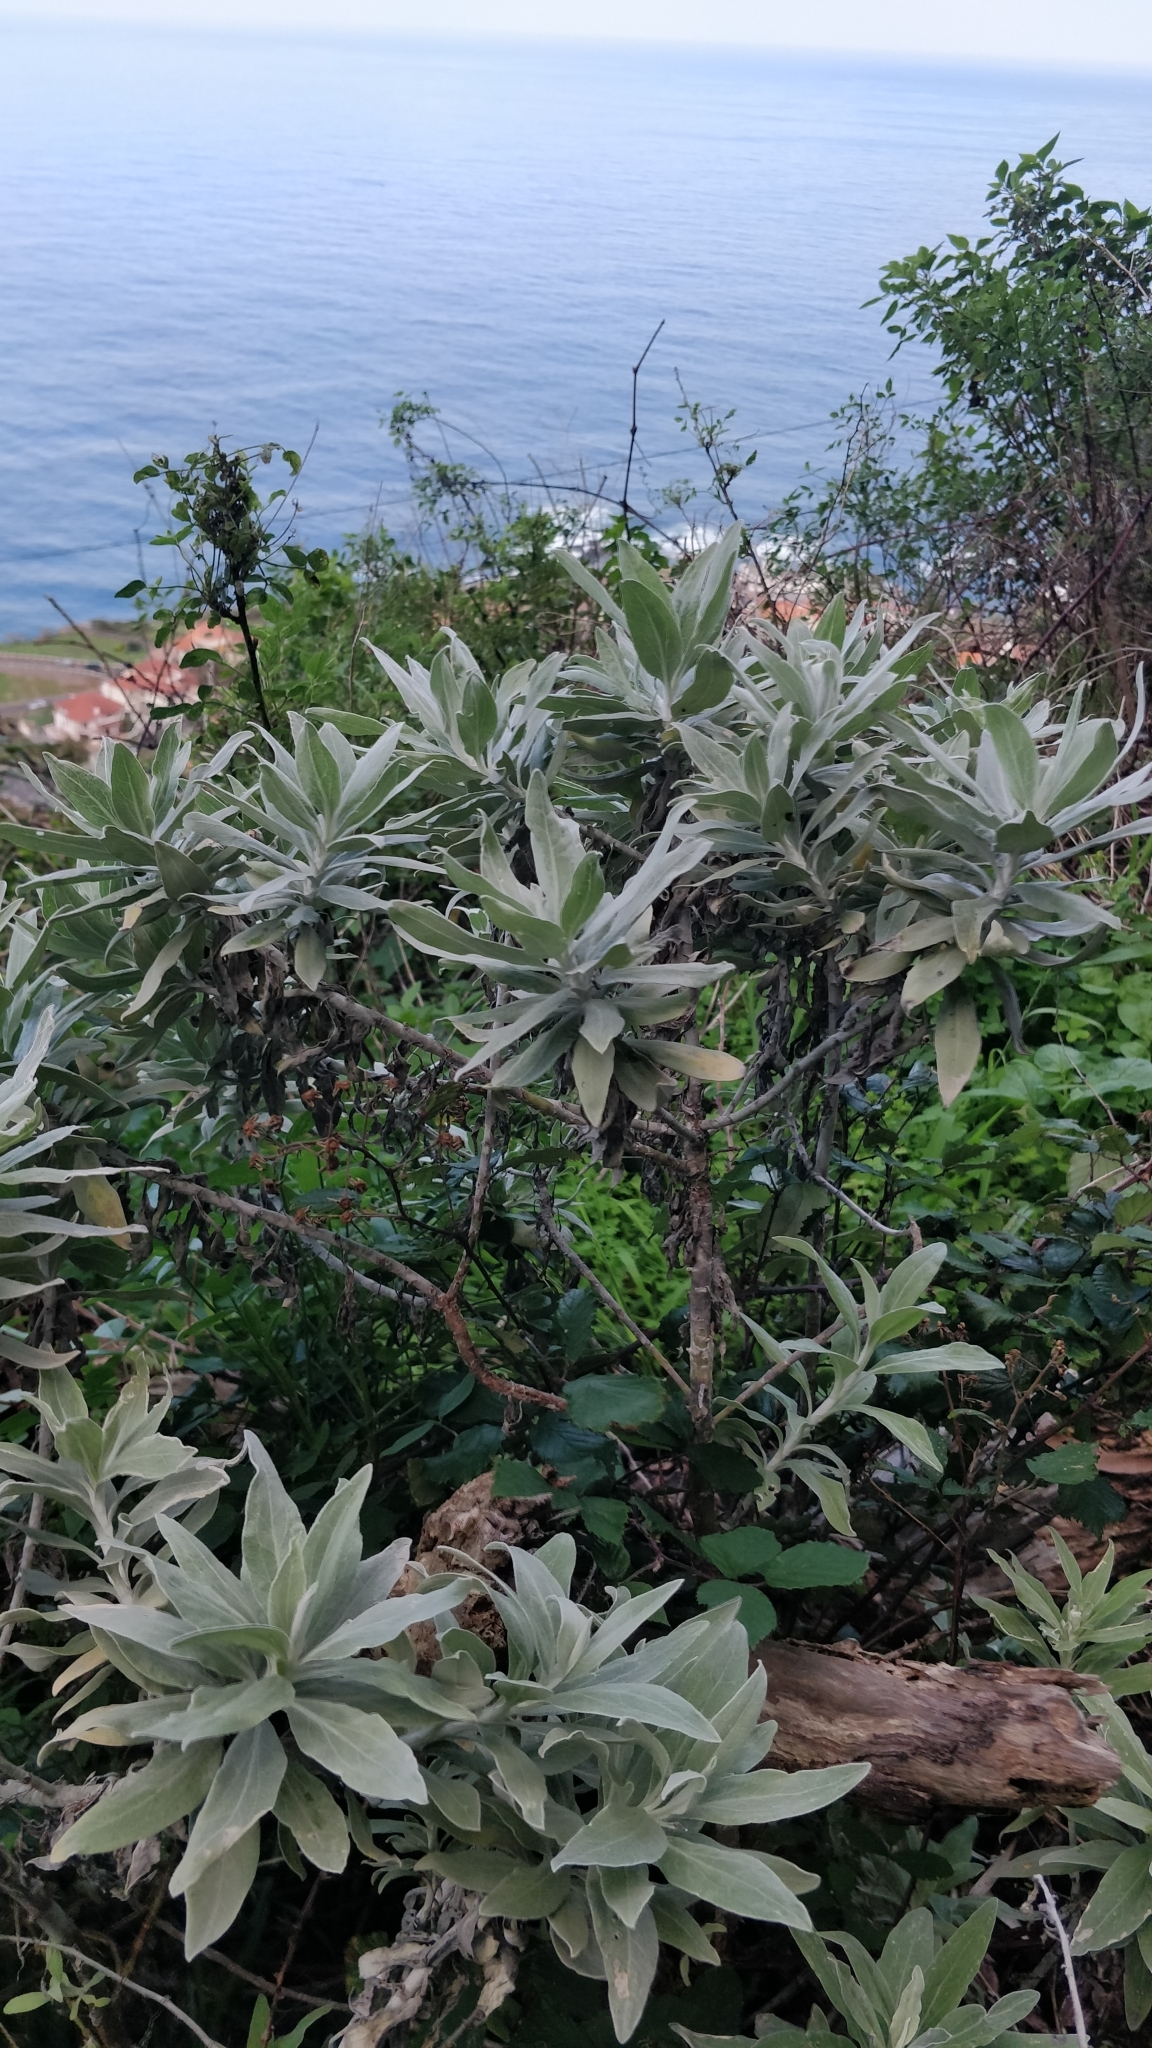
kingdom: Plantae
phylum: Tracheophyta
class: Magnoliopsida
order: Asterales
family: Asteraceae
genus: Helichrysum
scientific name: Helichrysum melaleucum
